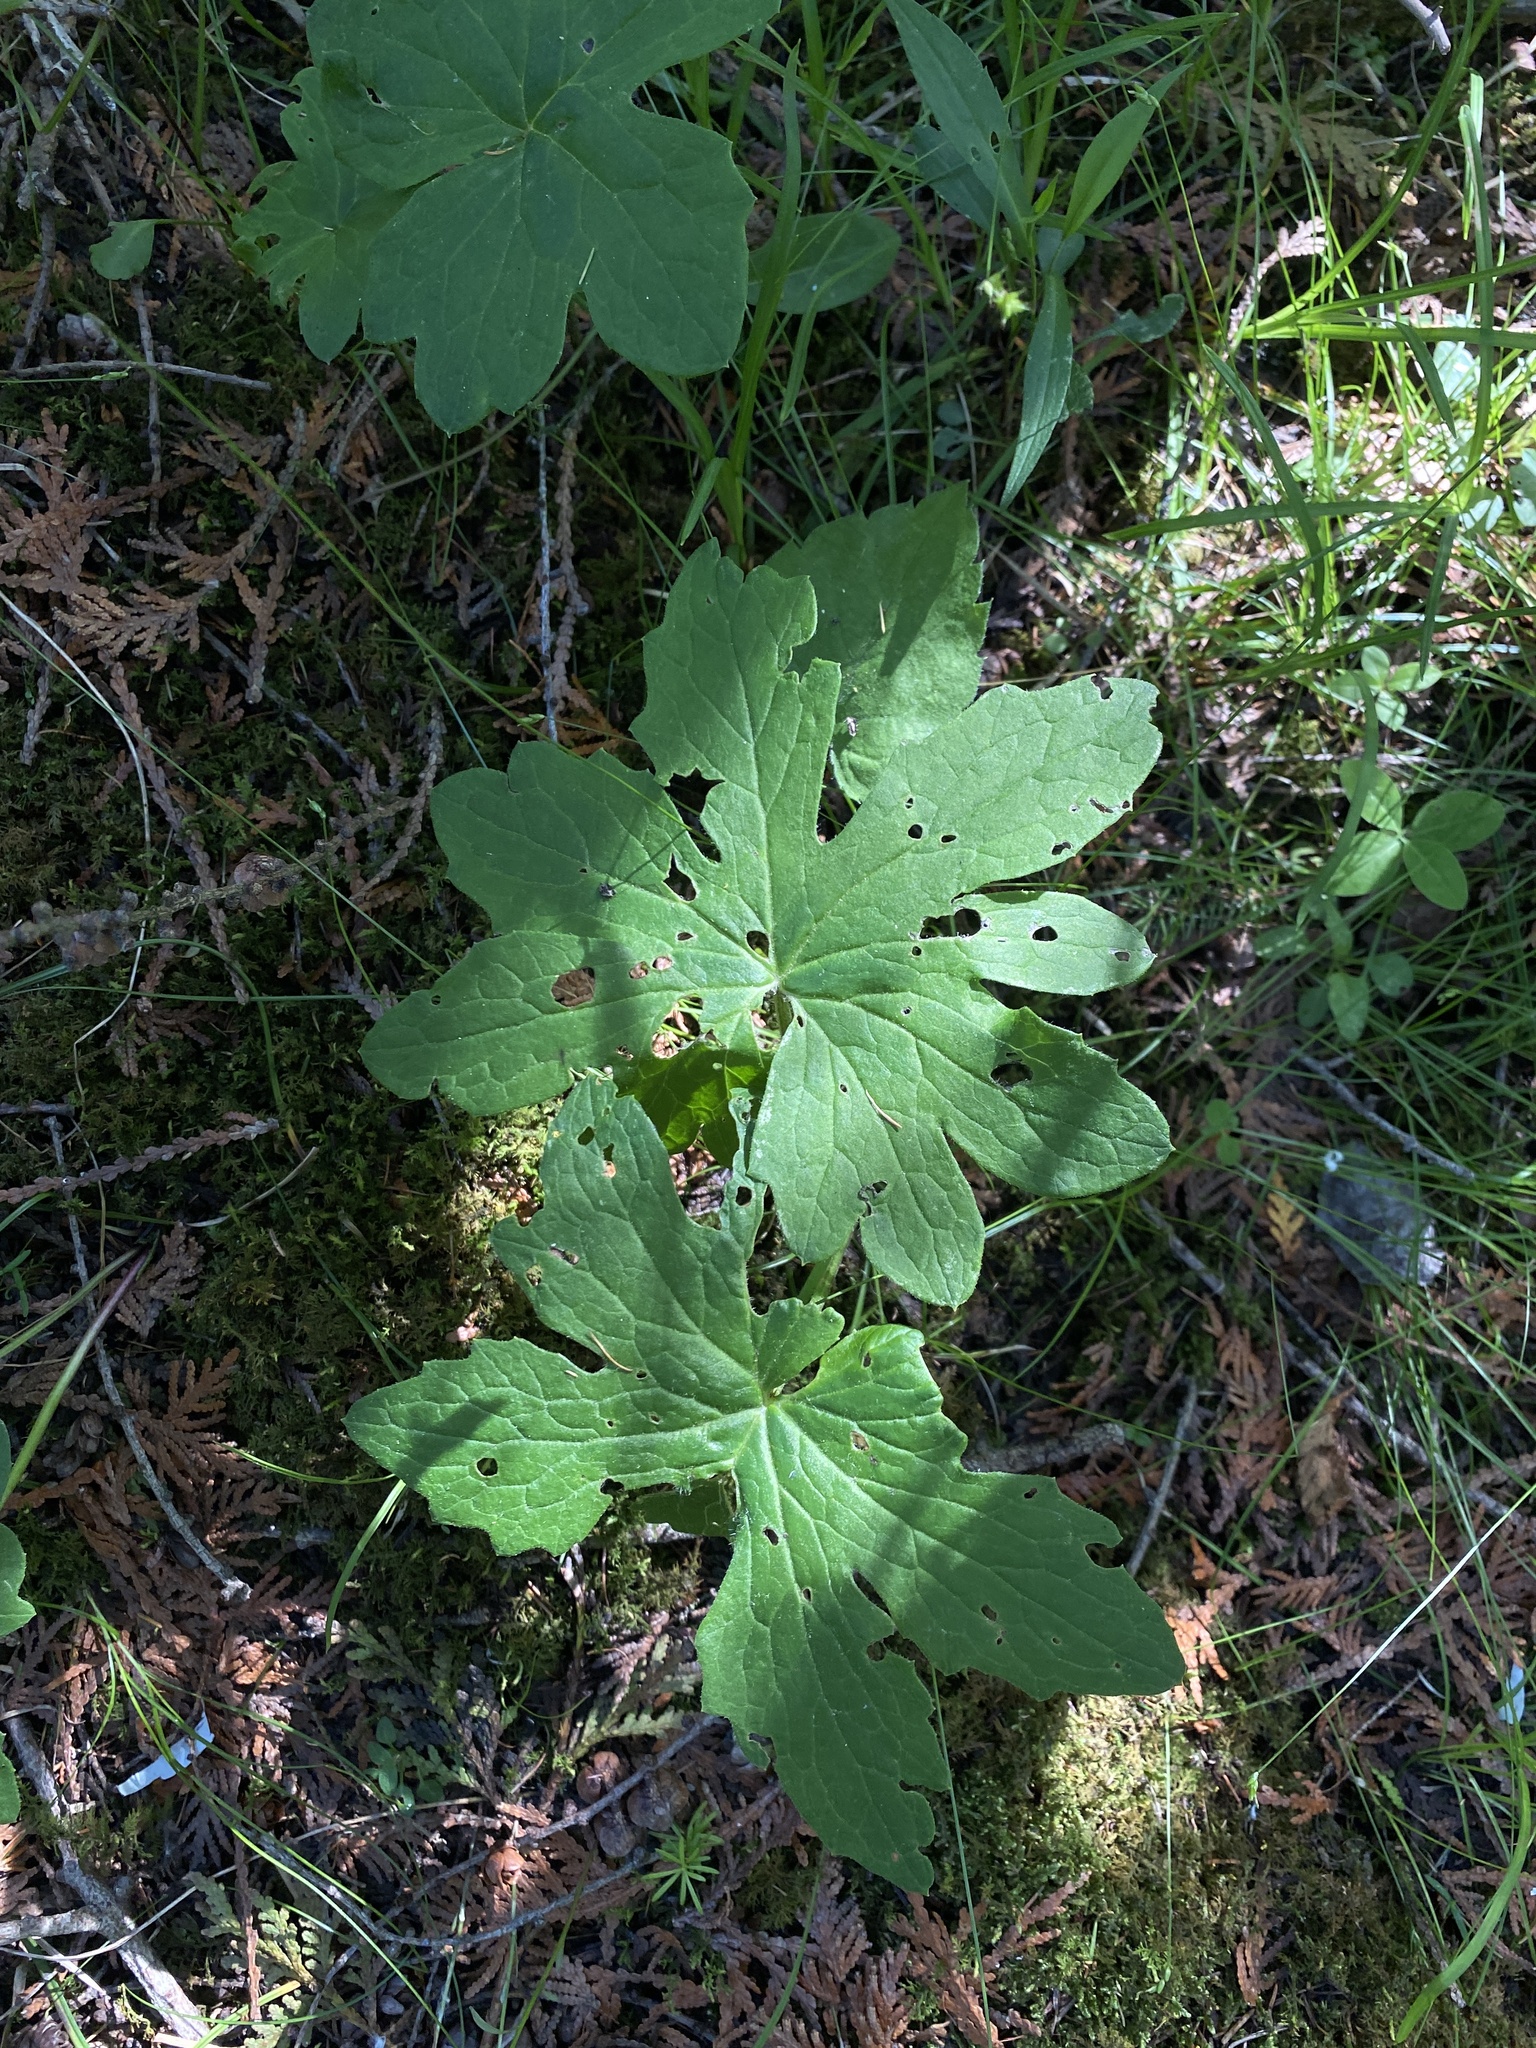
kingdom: Plantae
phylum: Tracheophyta
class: Magnoliopsida
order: Asterales
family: Asteraceae
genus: Petasites
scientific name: Petasites frigidus
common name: Arctic butterbur
